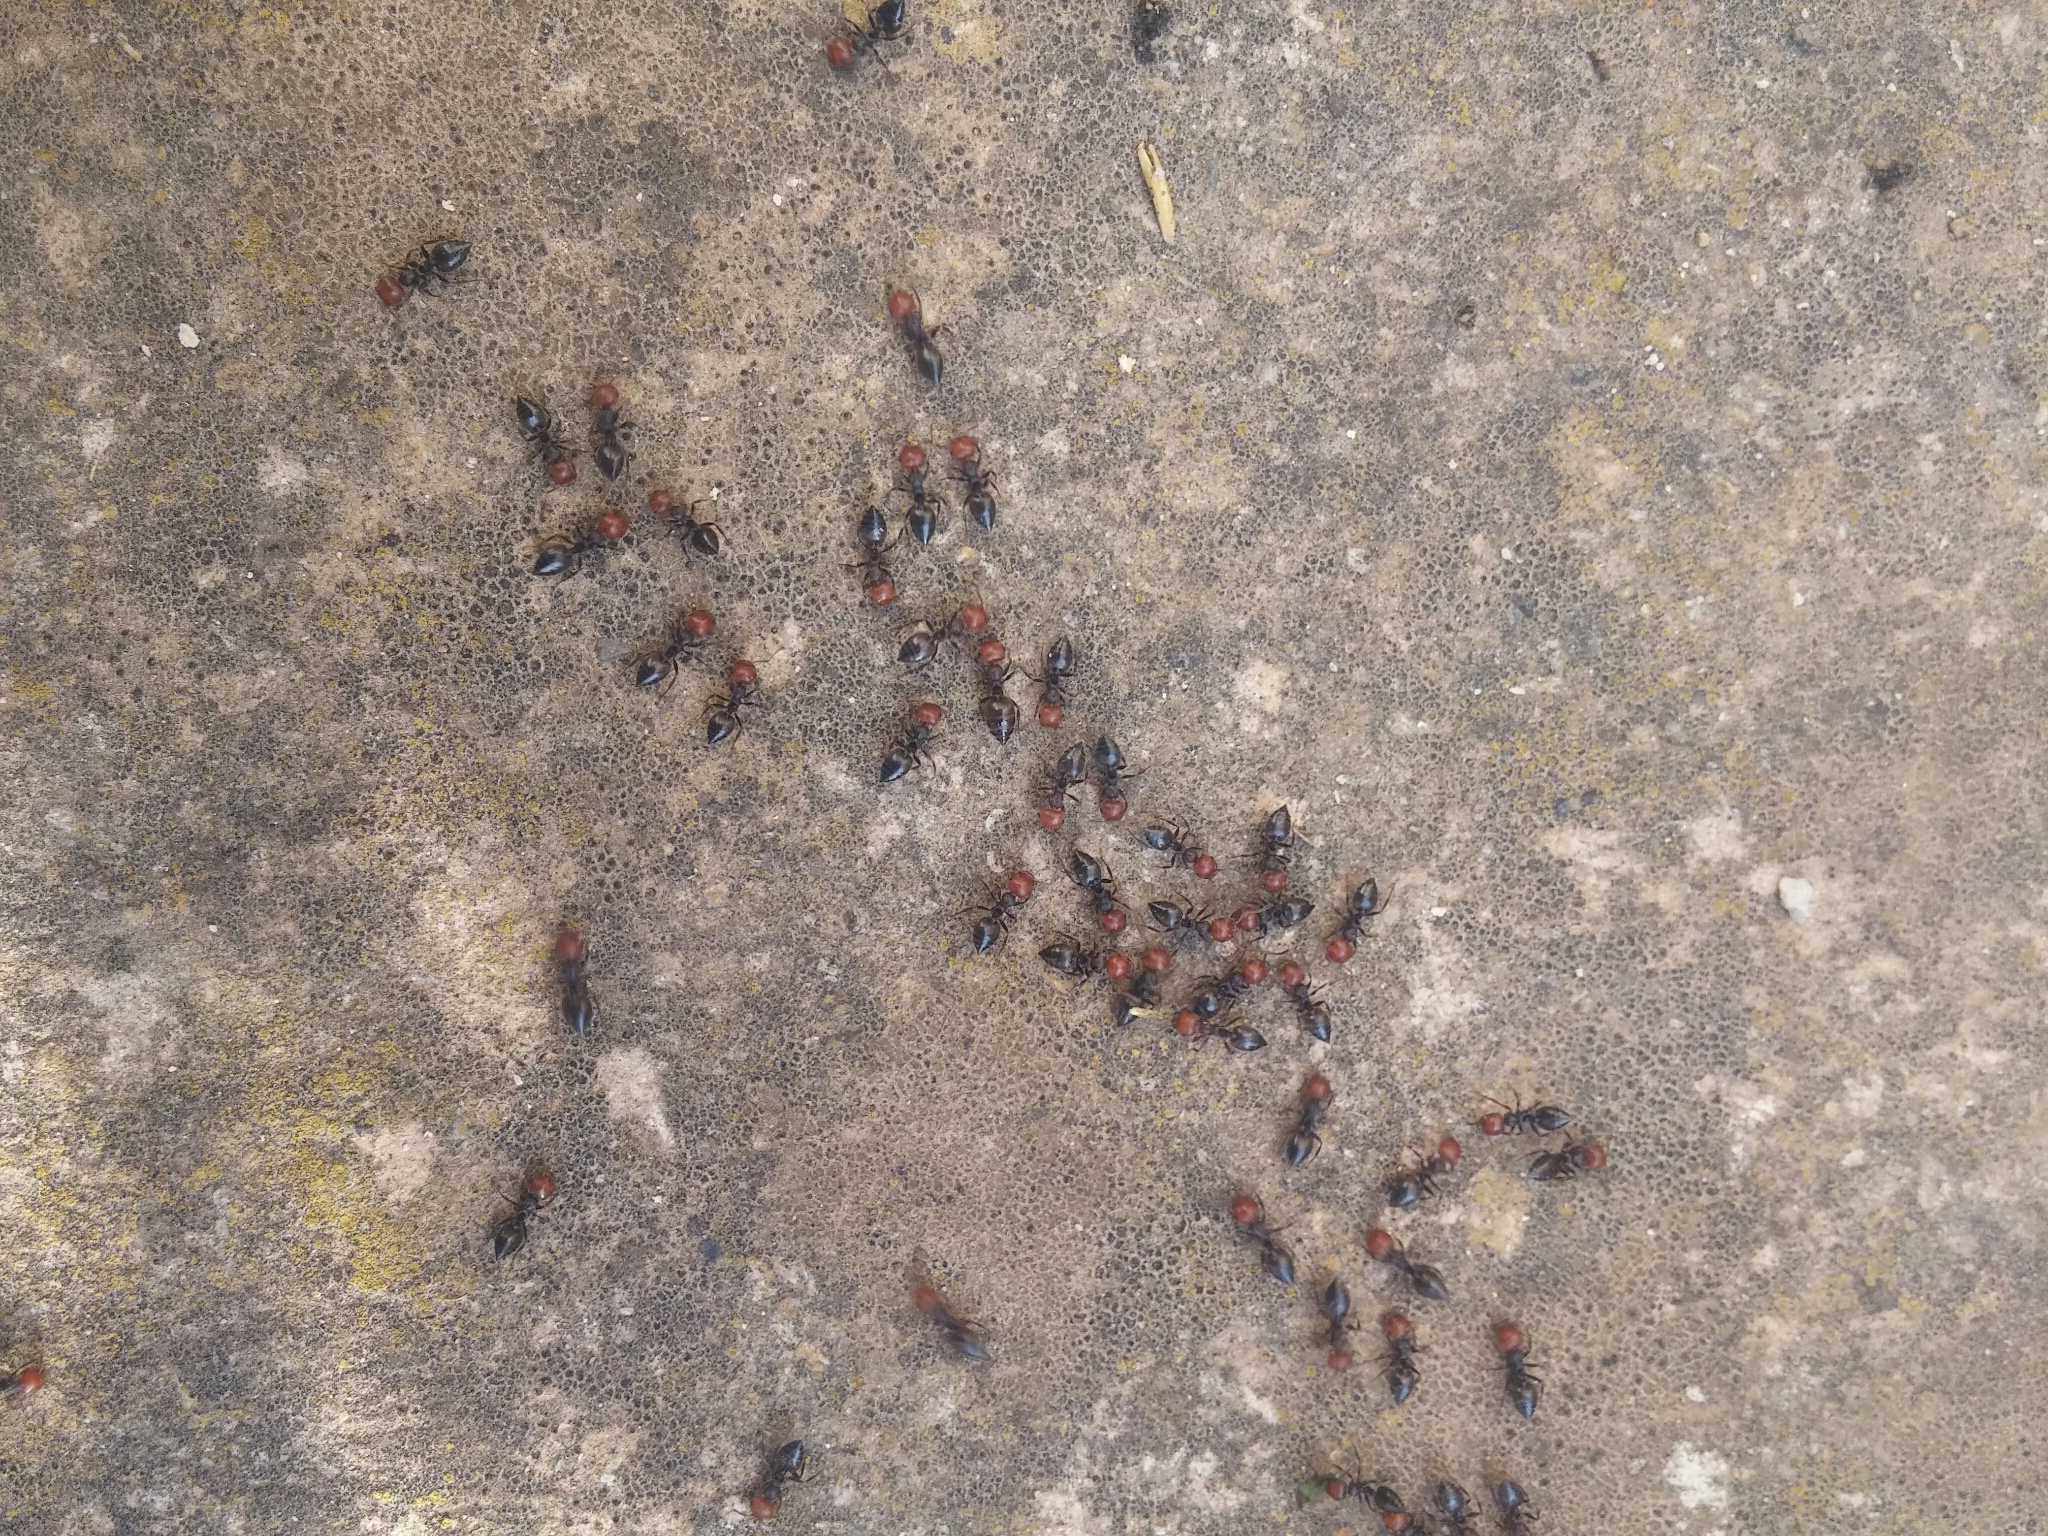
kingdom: Animalia
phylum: Arthropoda
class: Insecta
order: Hymenoptera
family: Formicidae
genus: Crematogaster
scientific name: Crematogaster scutellaris
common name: Fourmi du liège
